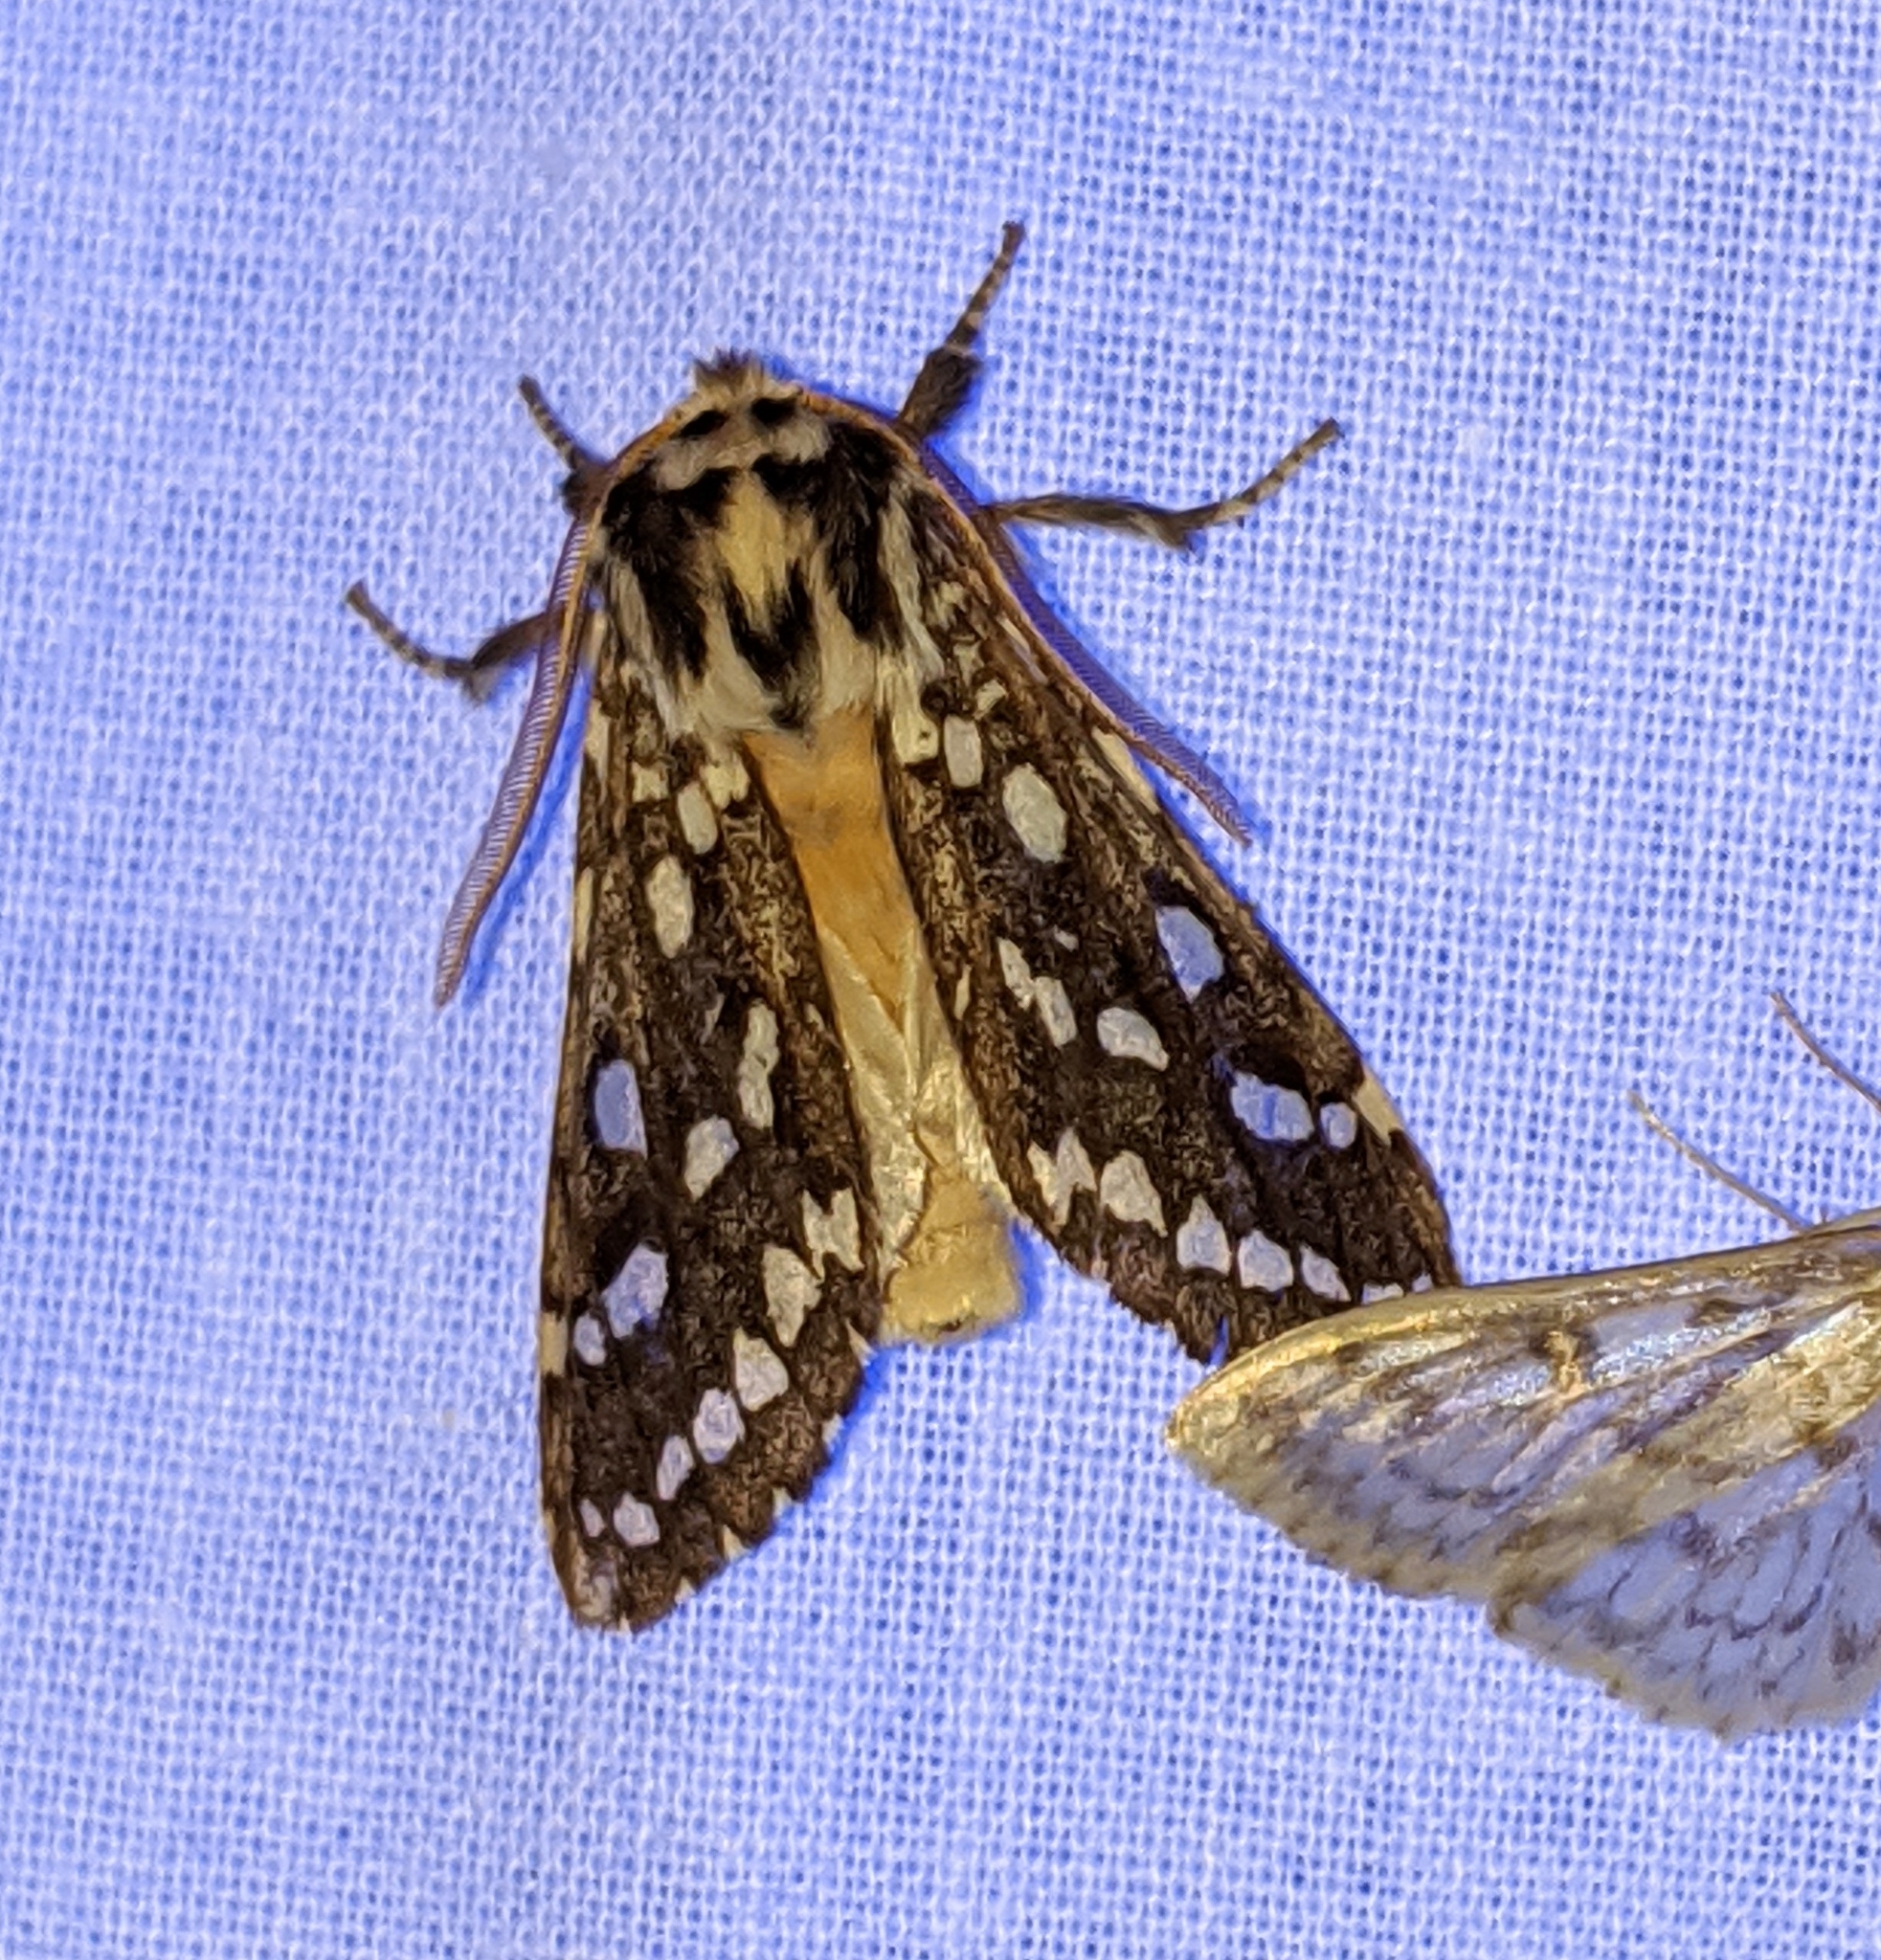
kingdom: Animalia
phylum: Arthropoda
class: Insecta
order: Lepidoptera
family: Erebidae
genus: Lophocampa
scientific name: Lophocampa argentata
